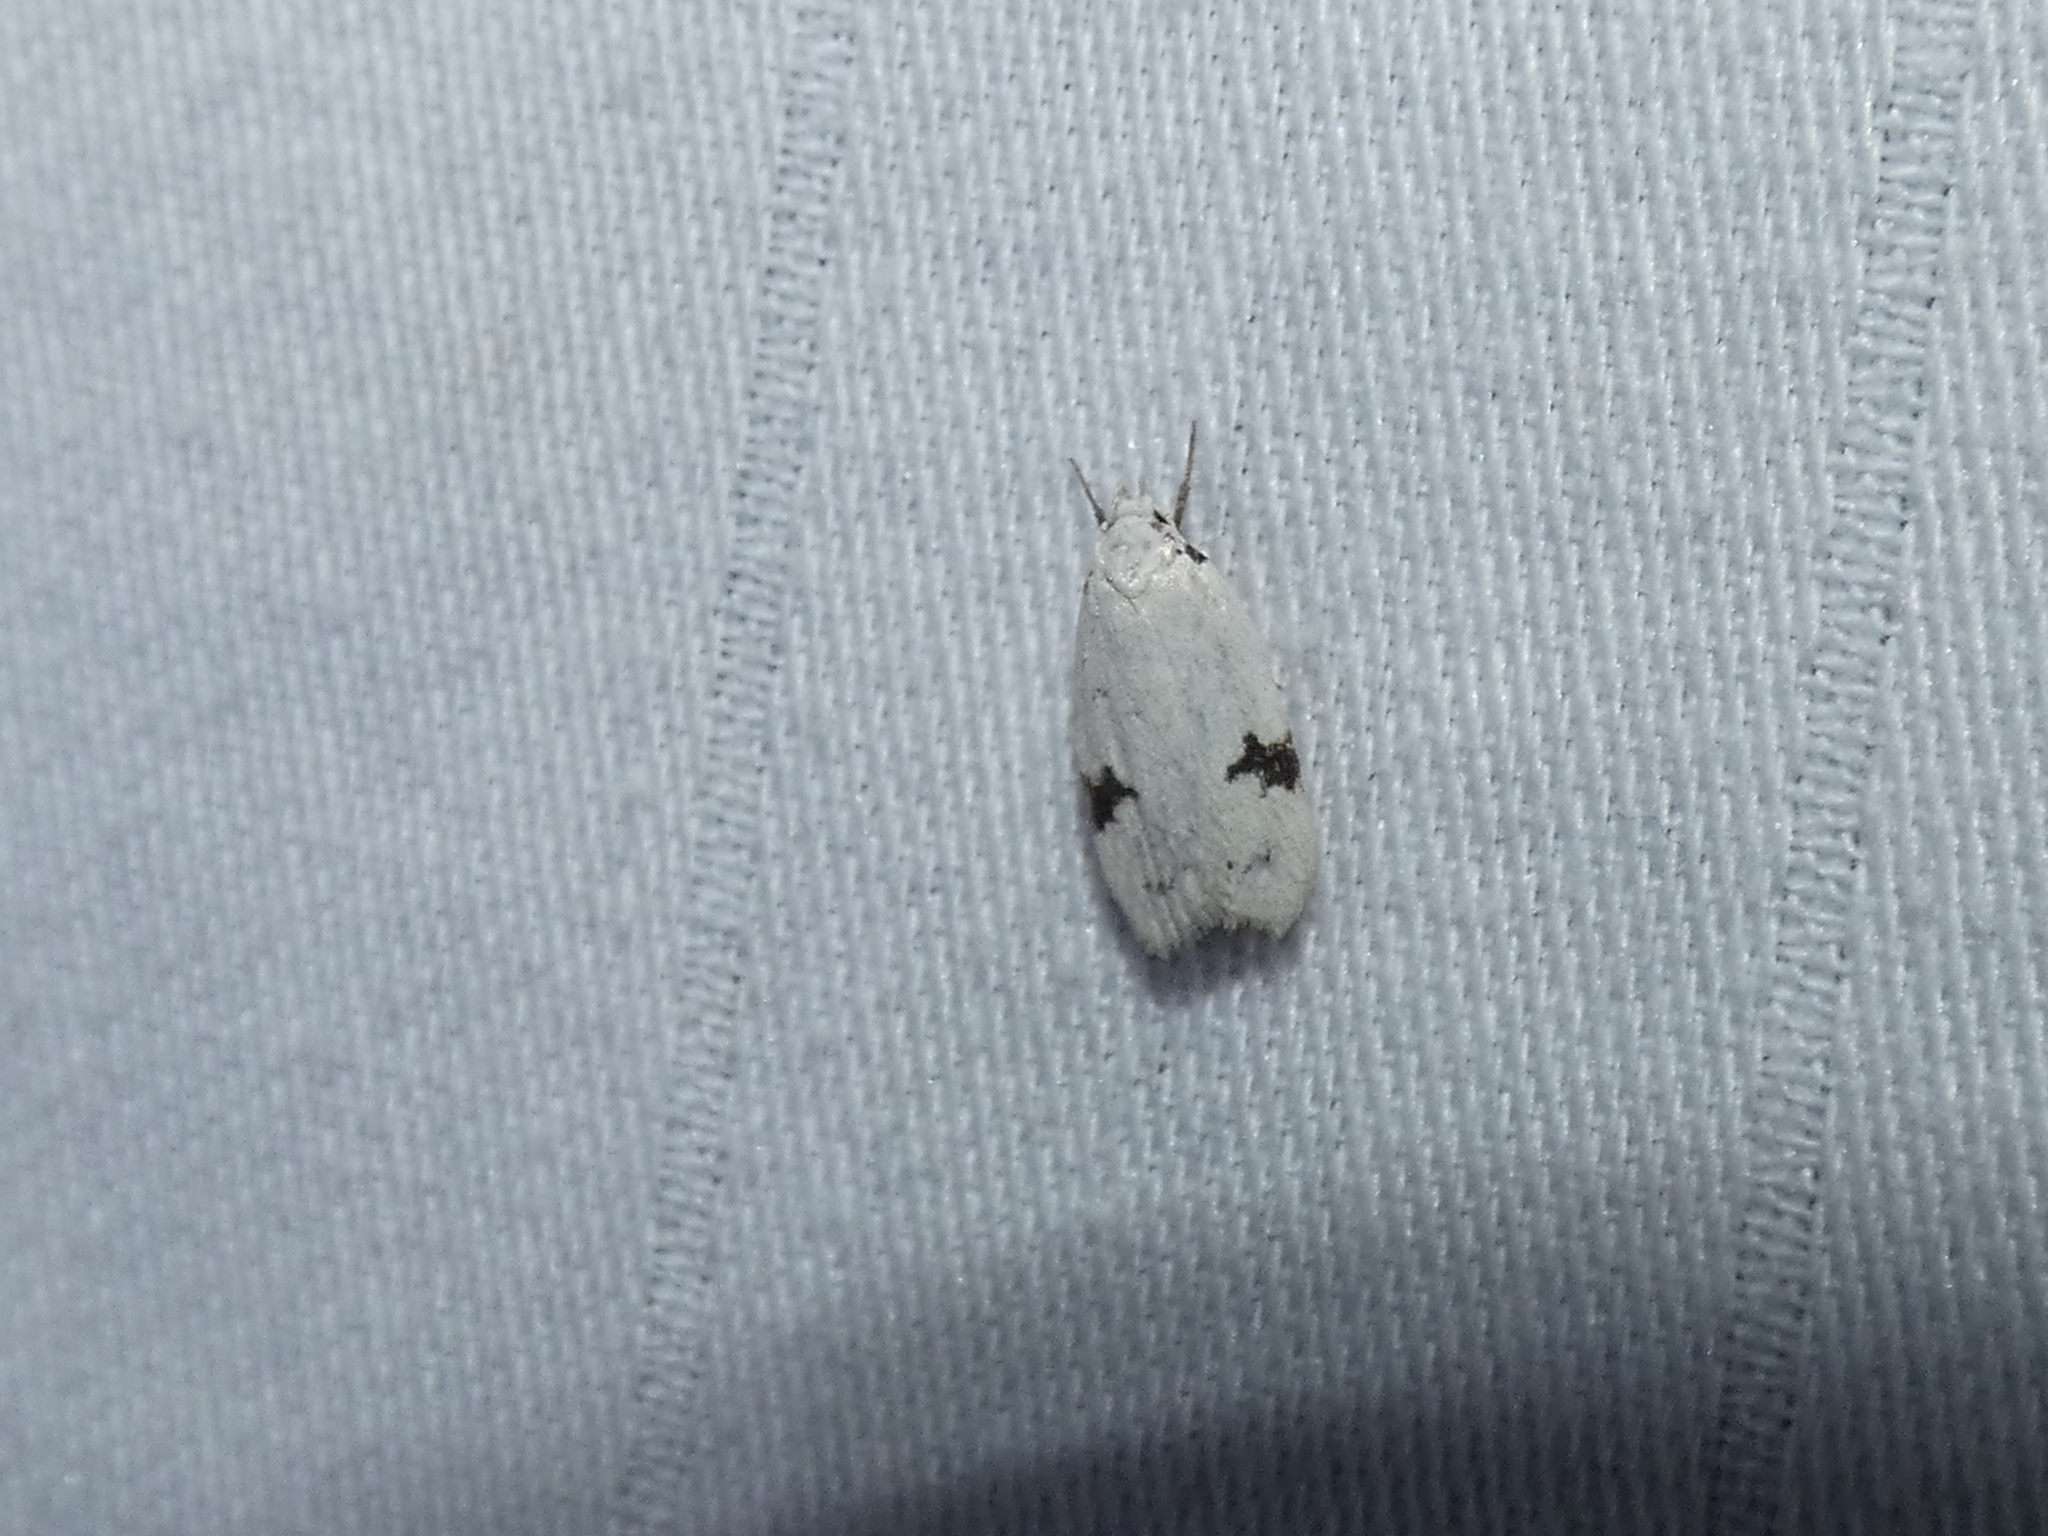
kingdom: Animalia
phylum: Arthropoda
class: Insecta
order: Lepidoptera
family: Oecophoridae
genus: Inga
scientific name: Inga sparsiciliella
